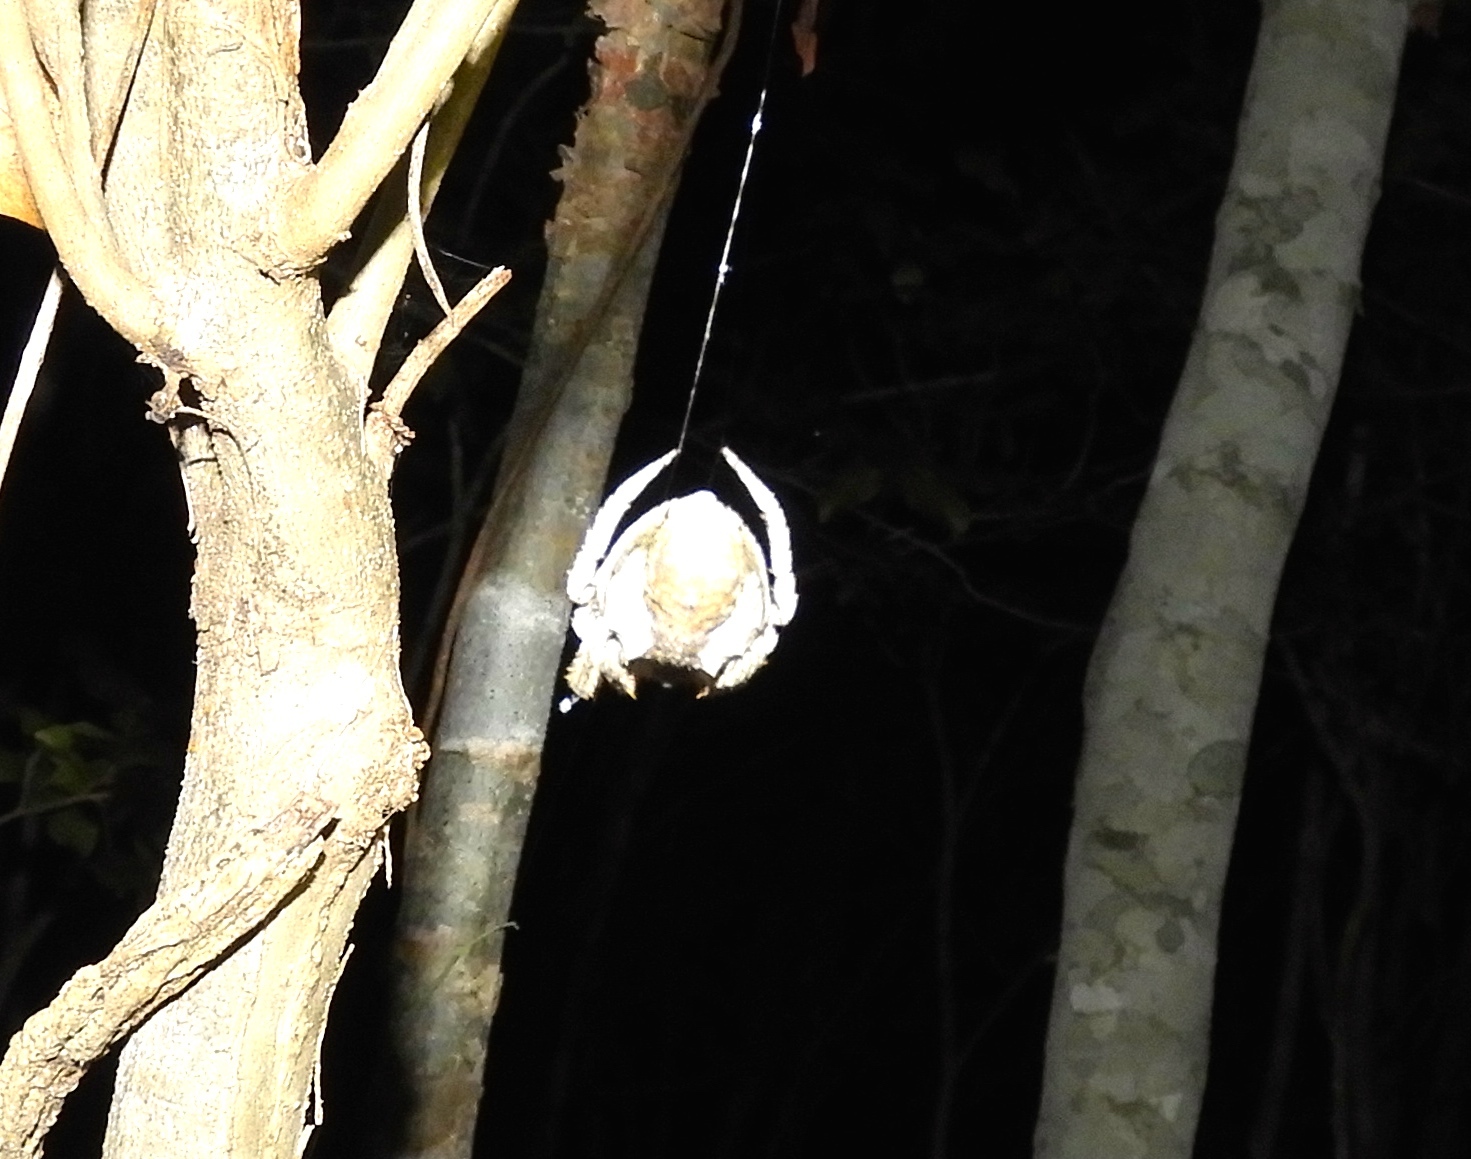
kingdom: Animalia
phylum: Arthropoda
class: Arachnida
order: Araneae
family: Araneidae
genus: Parawixia
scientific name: Parawixia
